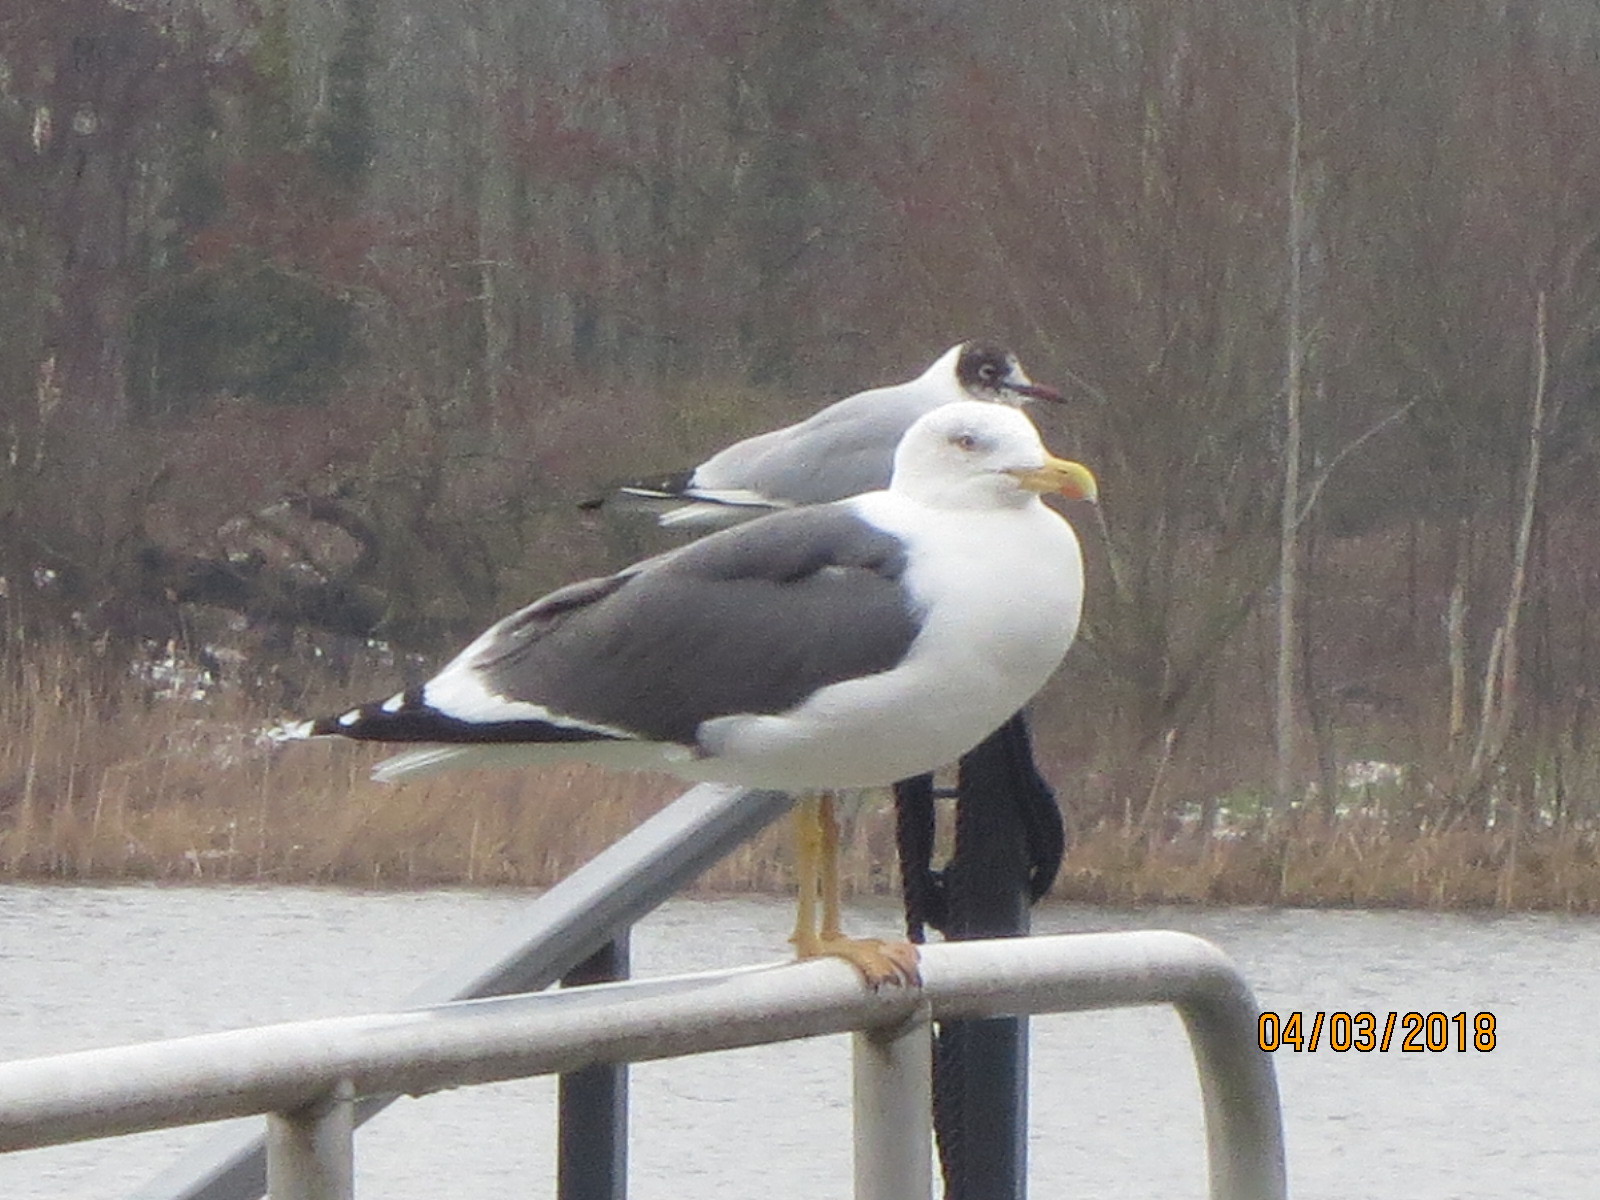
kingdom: Animalia
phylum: Chordata
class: Aves
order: Charadriiformes
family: Laridae
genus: Larus
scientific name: Larus fuscus
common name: Lesser black-backed gull
